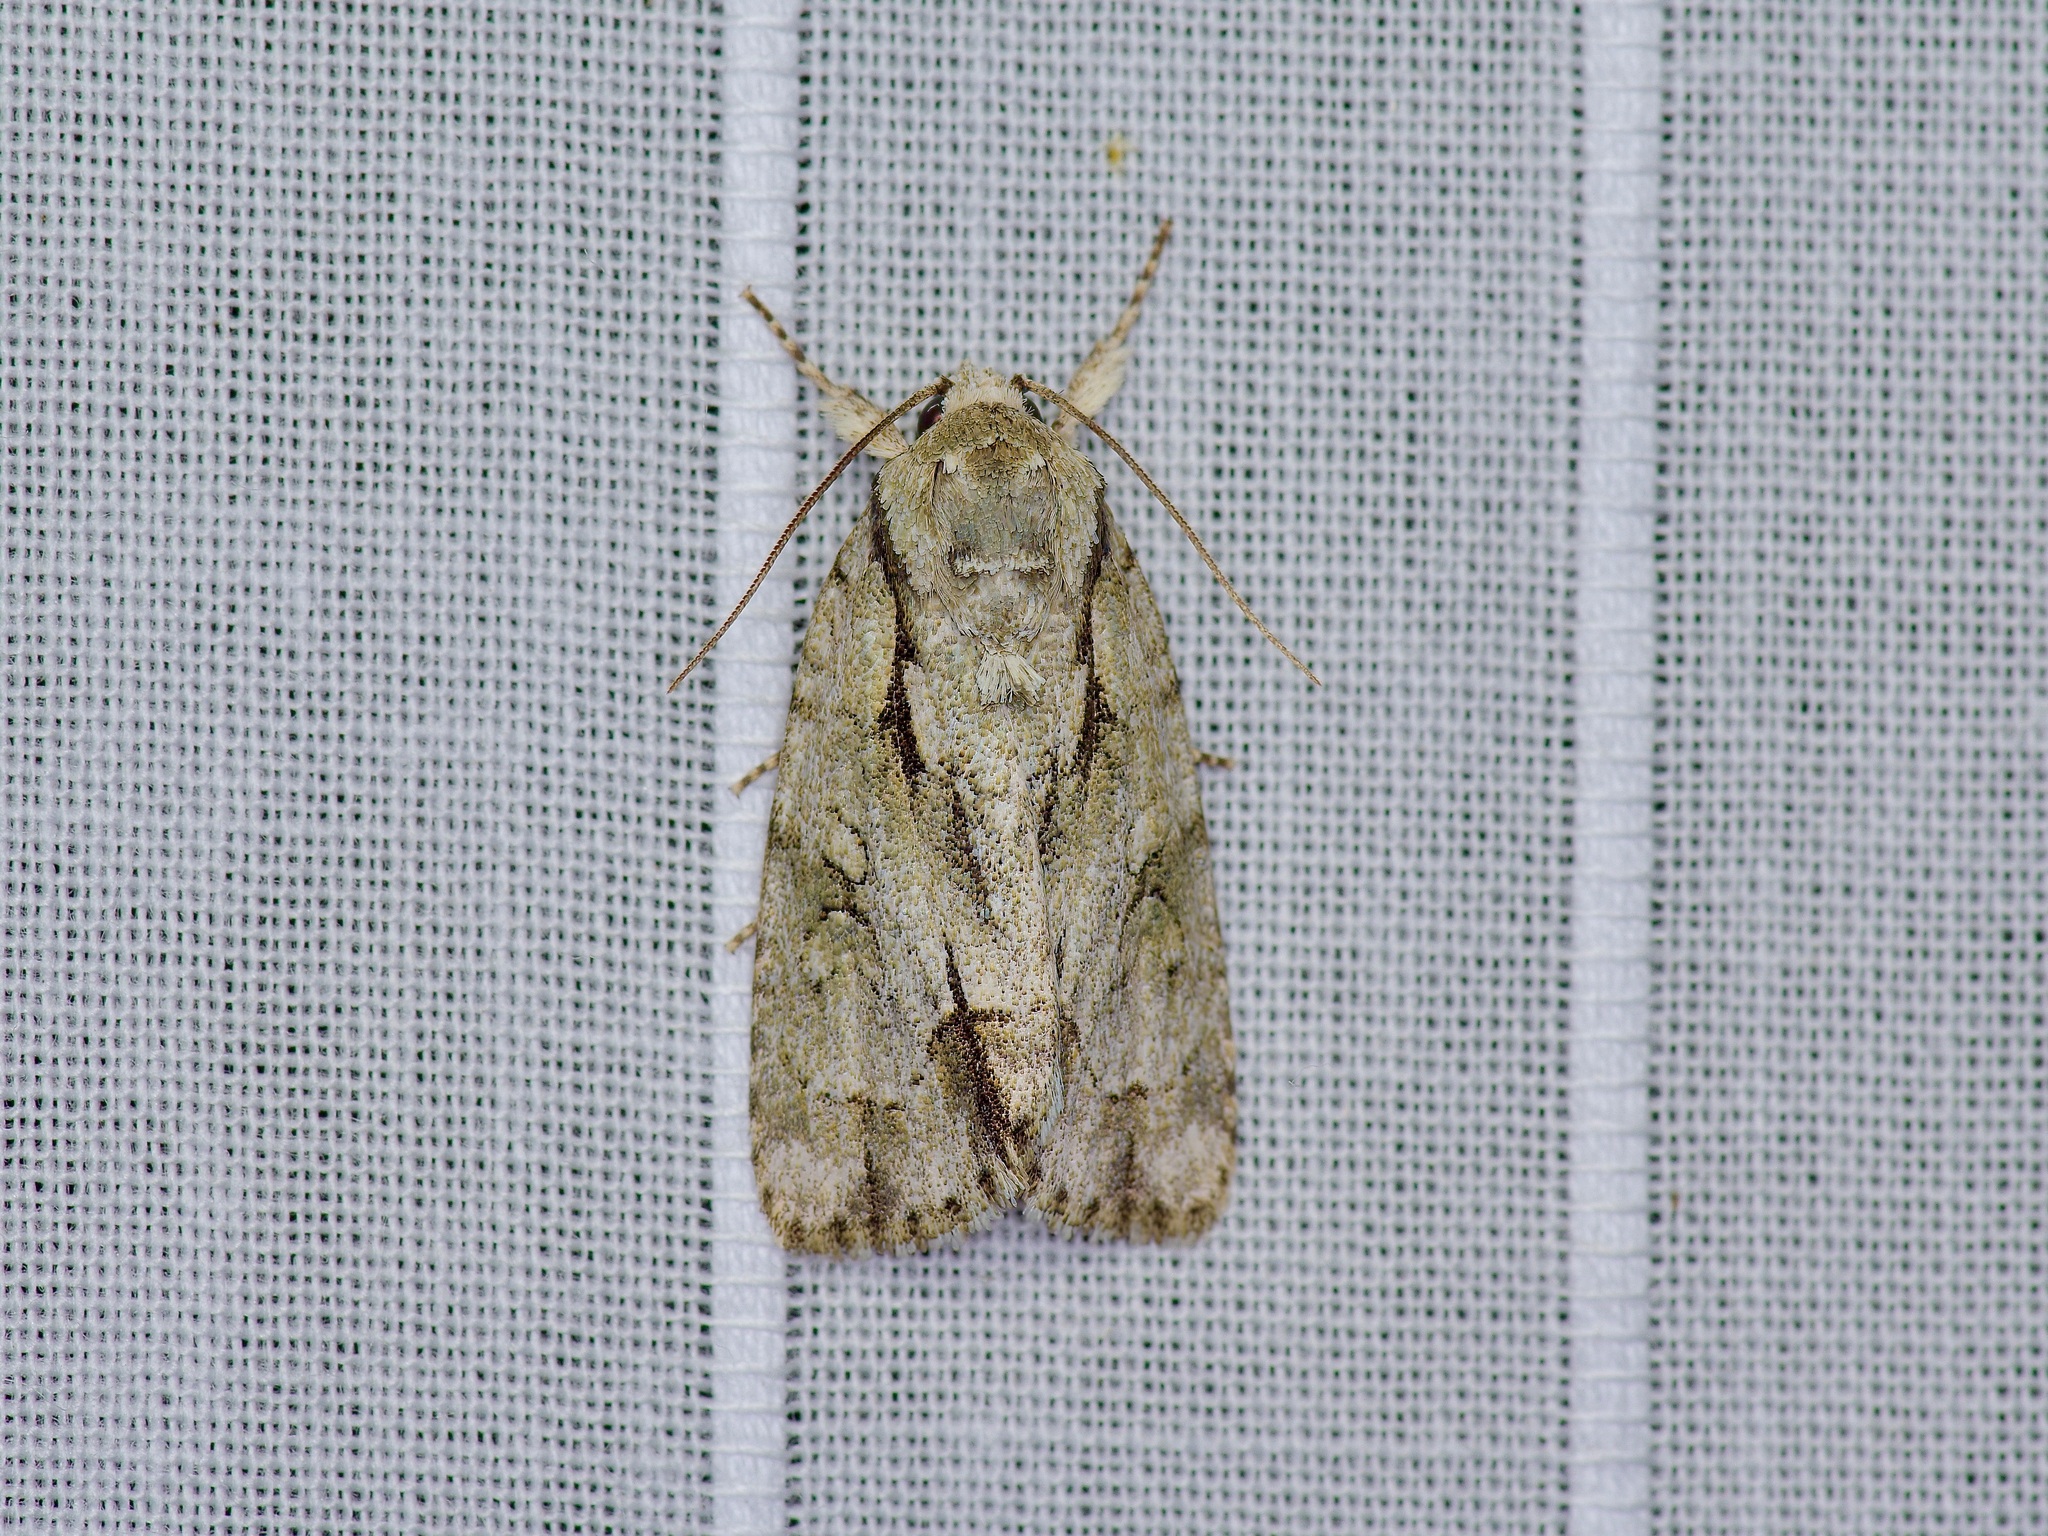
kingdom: Animalia
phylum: Arthropoda
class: Insecta
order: Lepidoptera
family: Noctuidae
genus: Acronicta
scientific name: Acronicta vinnula
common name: Delightful dagger
